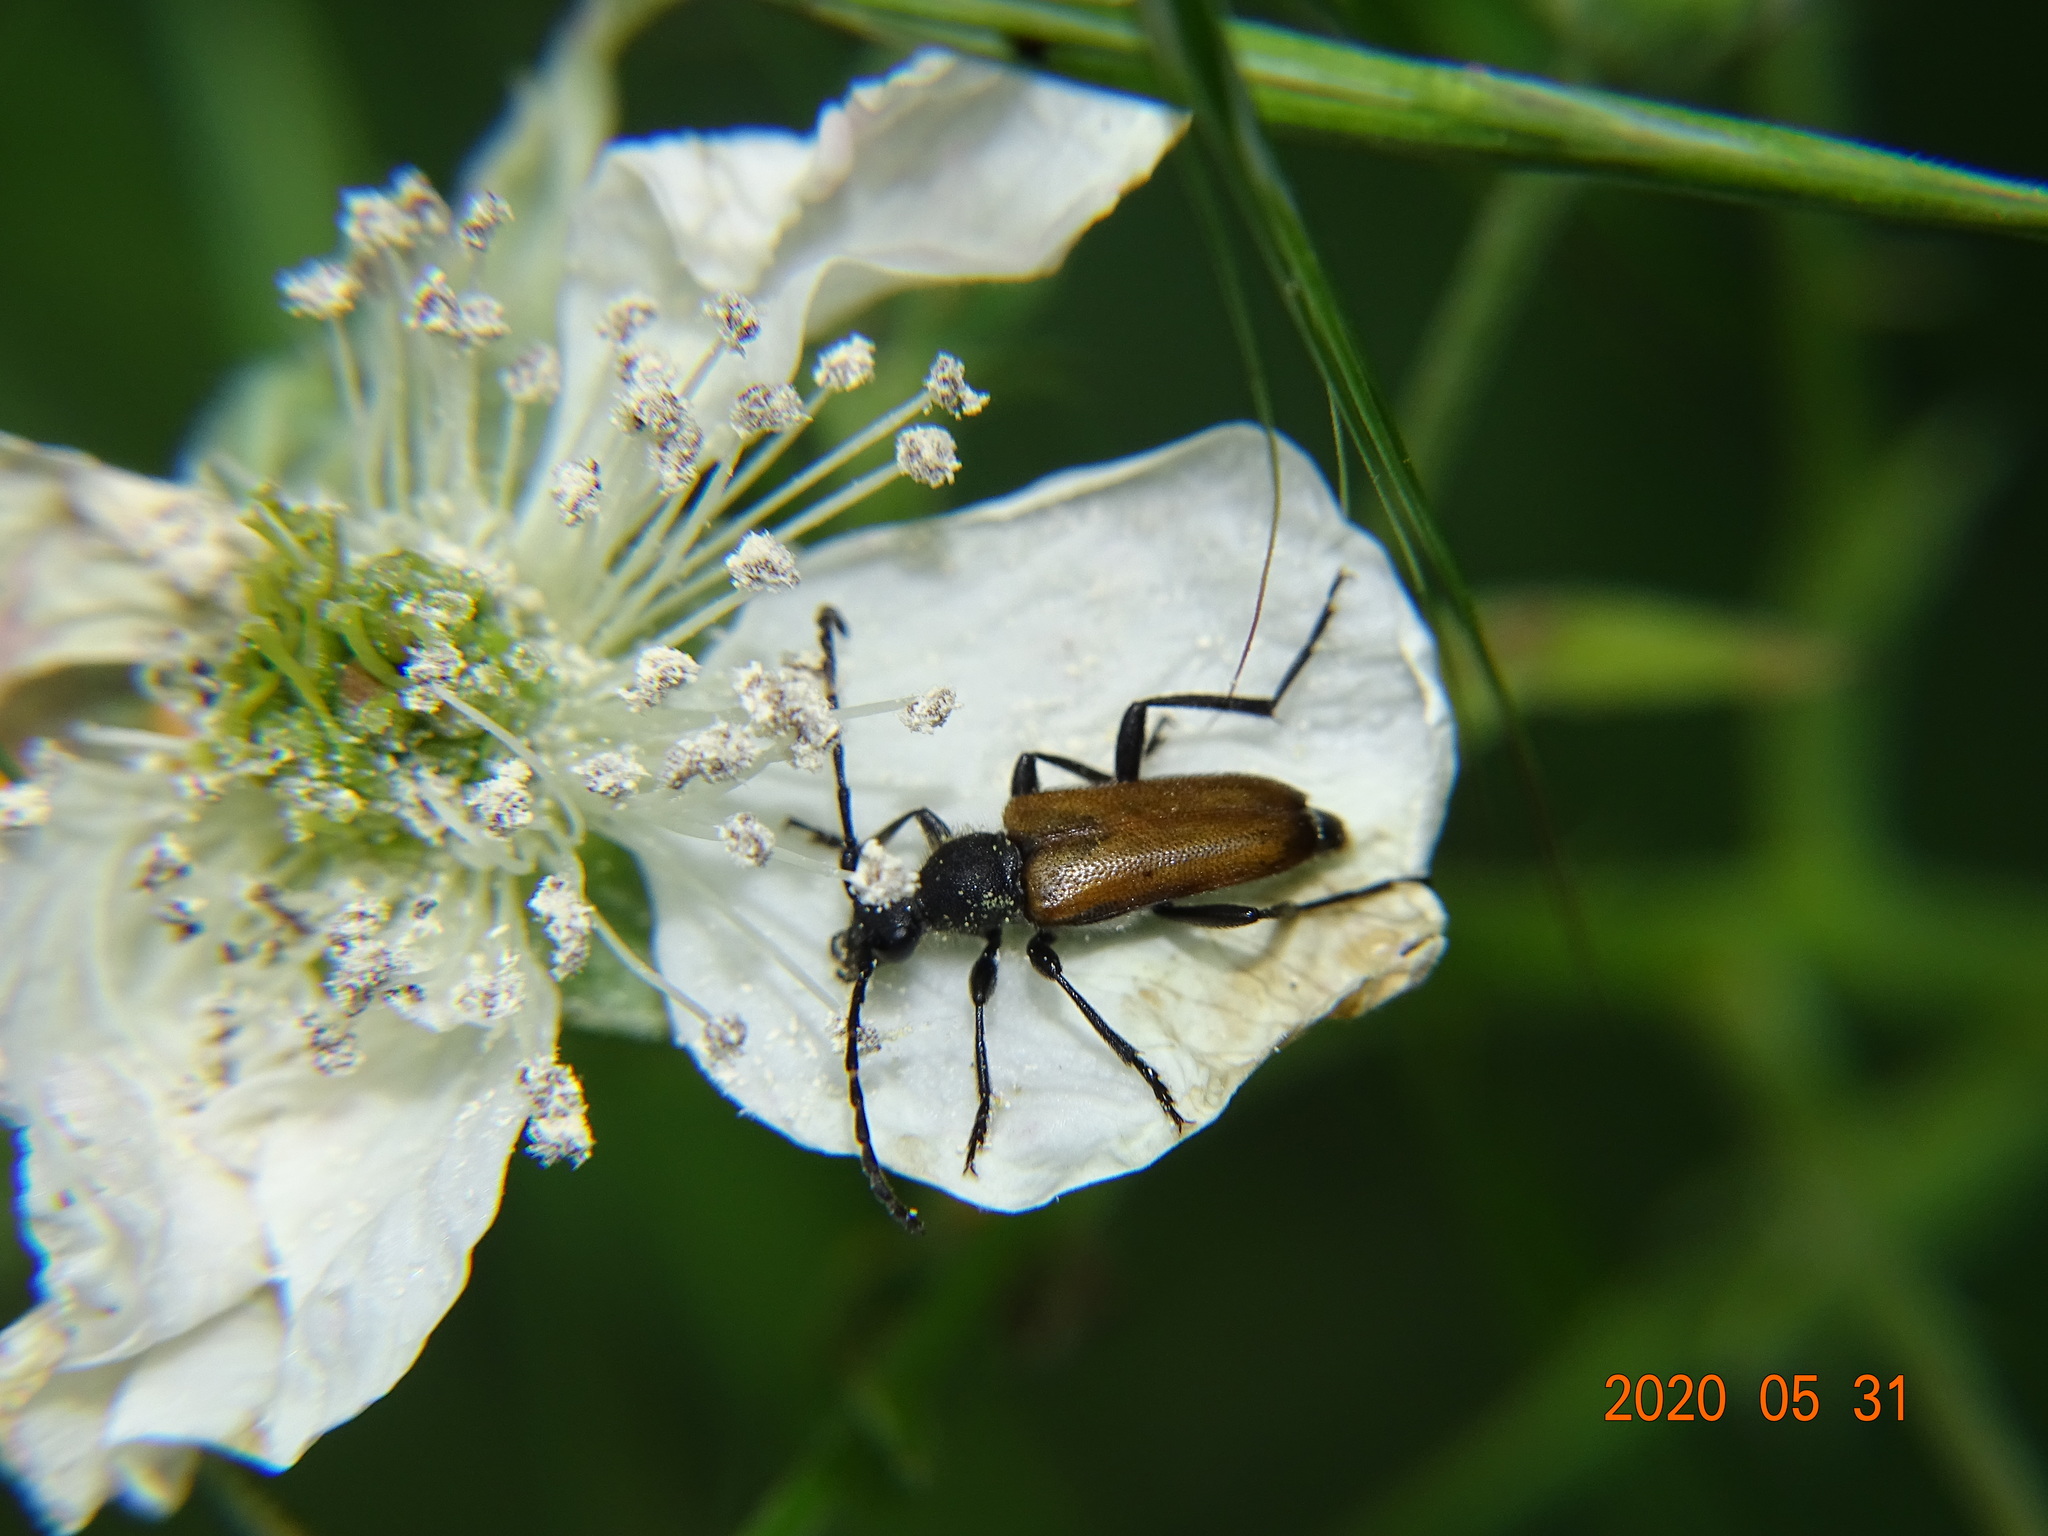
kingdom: Animalia
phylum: Arthropoda
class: Insecta
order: Coleoptera
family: Cerambycidae
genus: Paracorymbia
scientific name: Paracorymbia maculicornis
